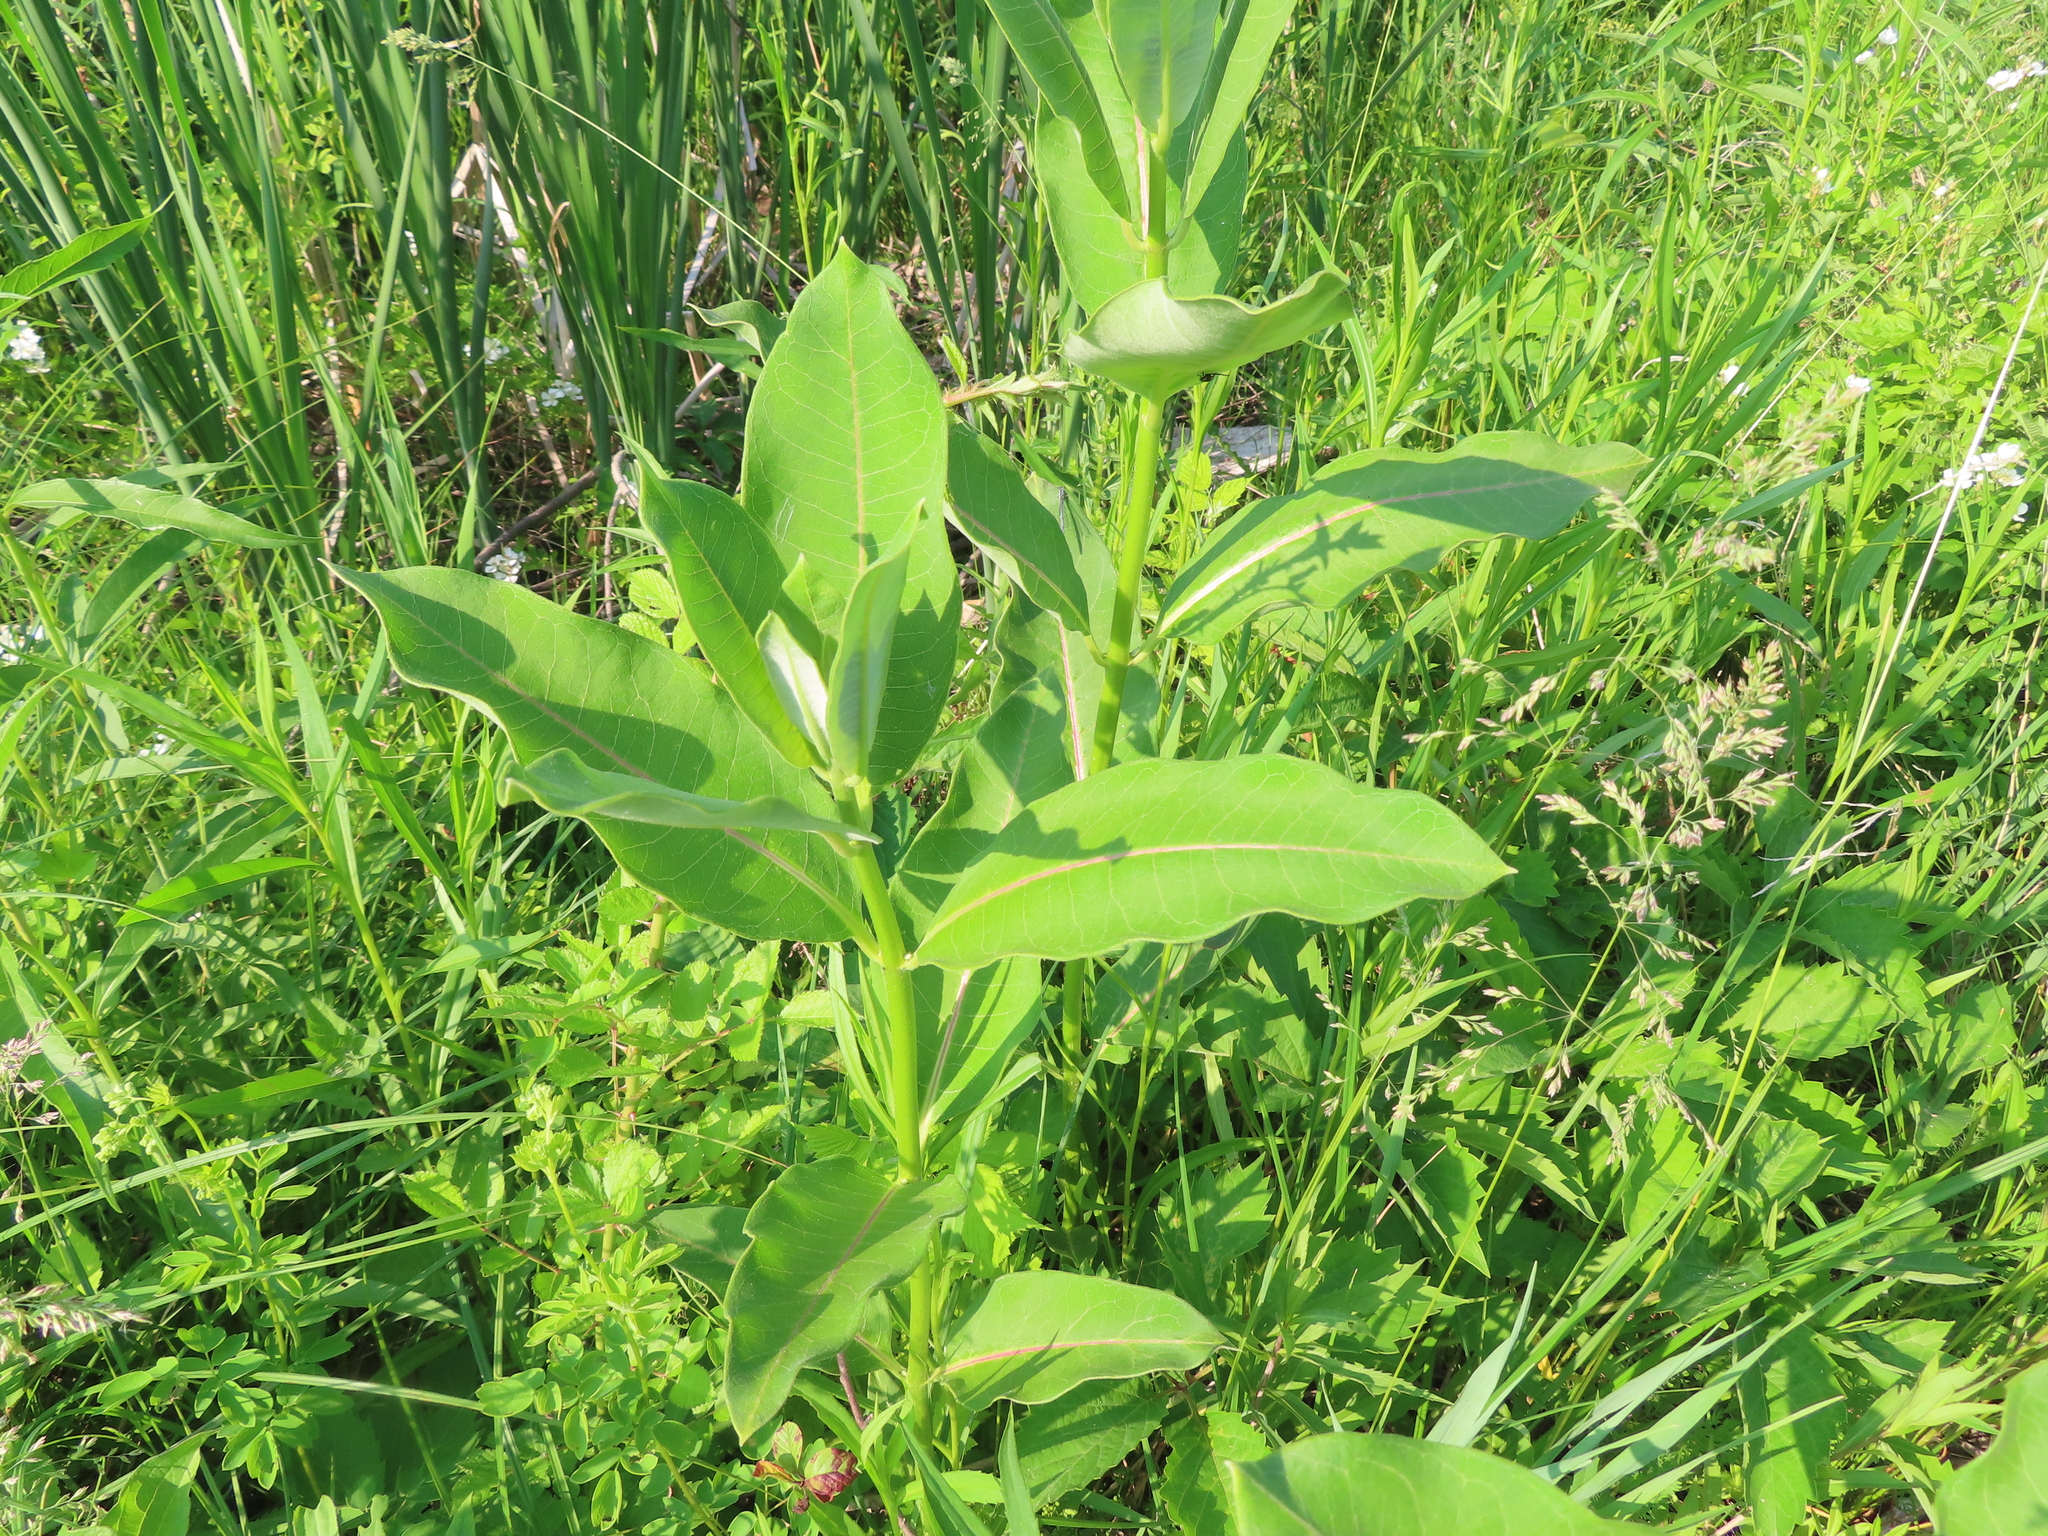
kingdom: Plantae
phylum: Tracheophyta
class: Magnoliopsida
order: Gentianales
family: Apocynaceae
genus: Asclepias
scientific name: Asclepias syriaca
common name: Common milkweed
